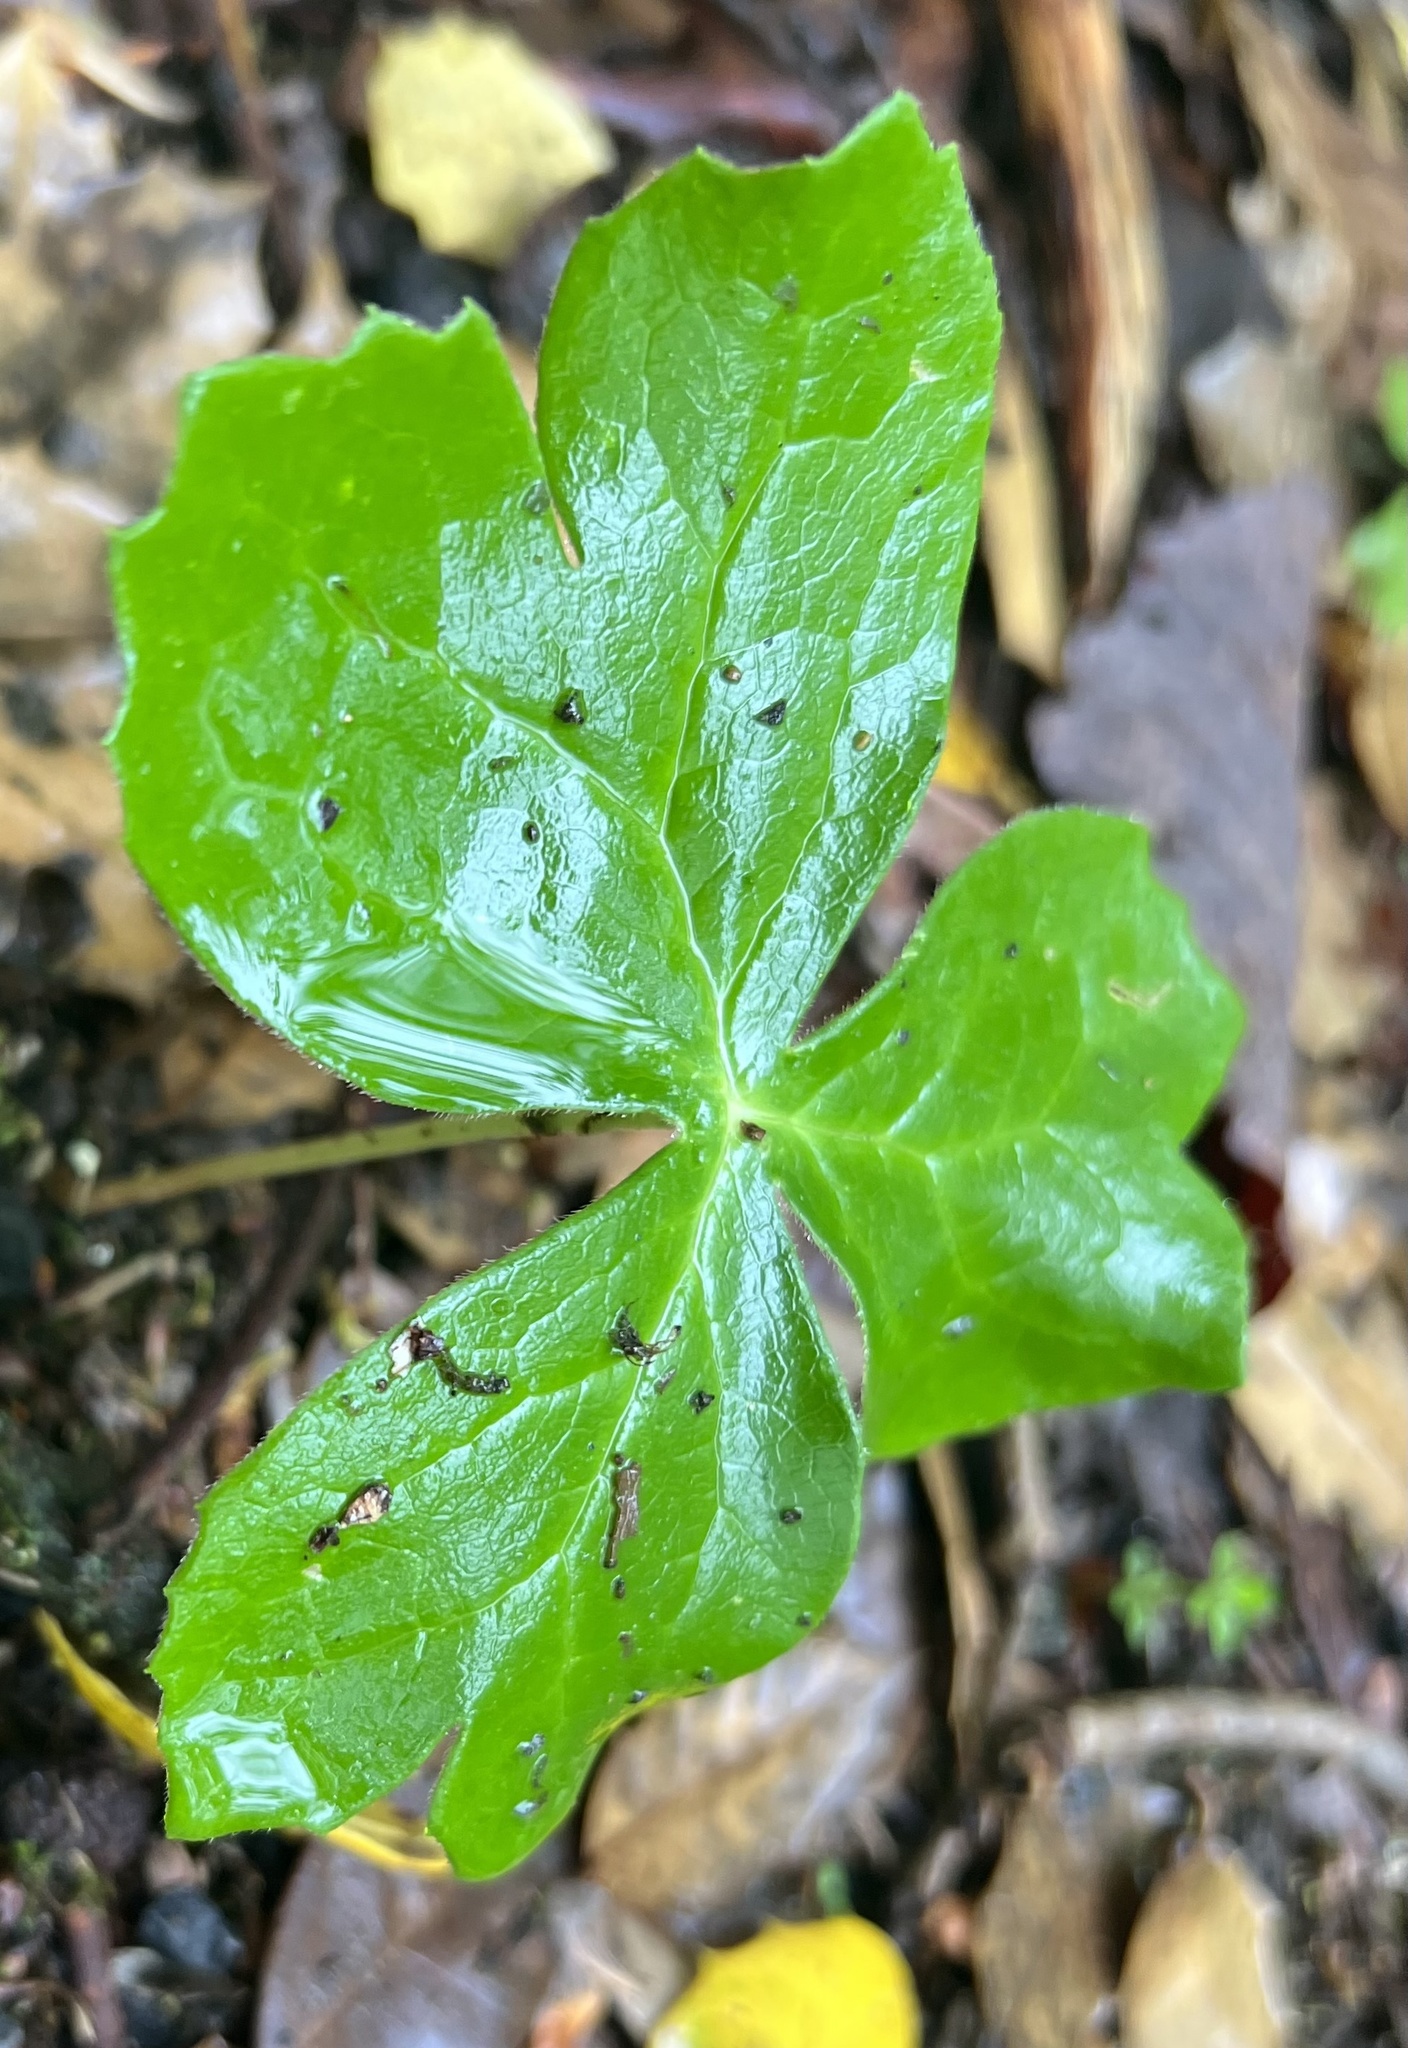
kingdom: Plantae
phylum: Tracheophyta
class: Magnoliopsida
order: Ranunculales
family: Berberidaceae
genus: Podophyllum
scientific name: Podophyllum peltatum
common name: Wild mandrake
